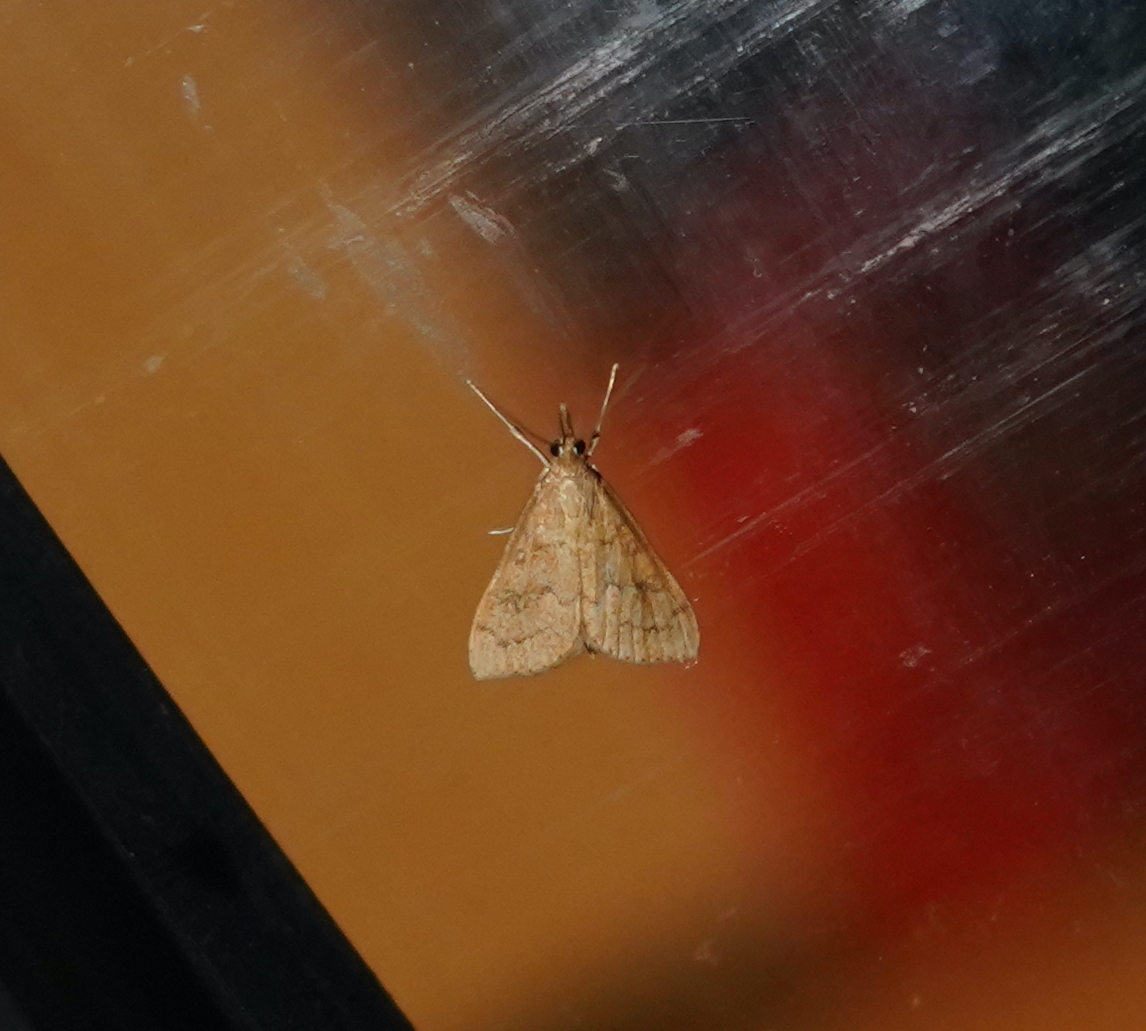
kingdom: Animalia
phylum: Arthropoda
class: Insecta
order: Lepidoptera
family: Crambidae
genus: Udea
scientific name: Udea rubigalis
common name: Celery leaftier moth
